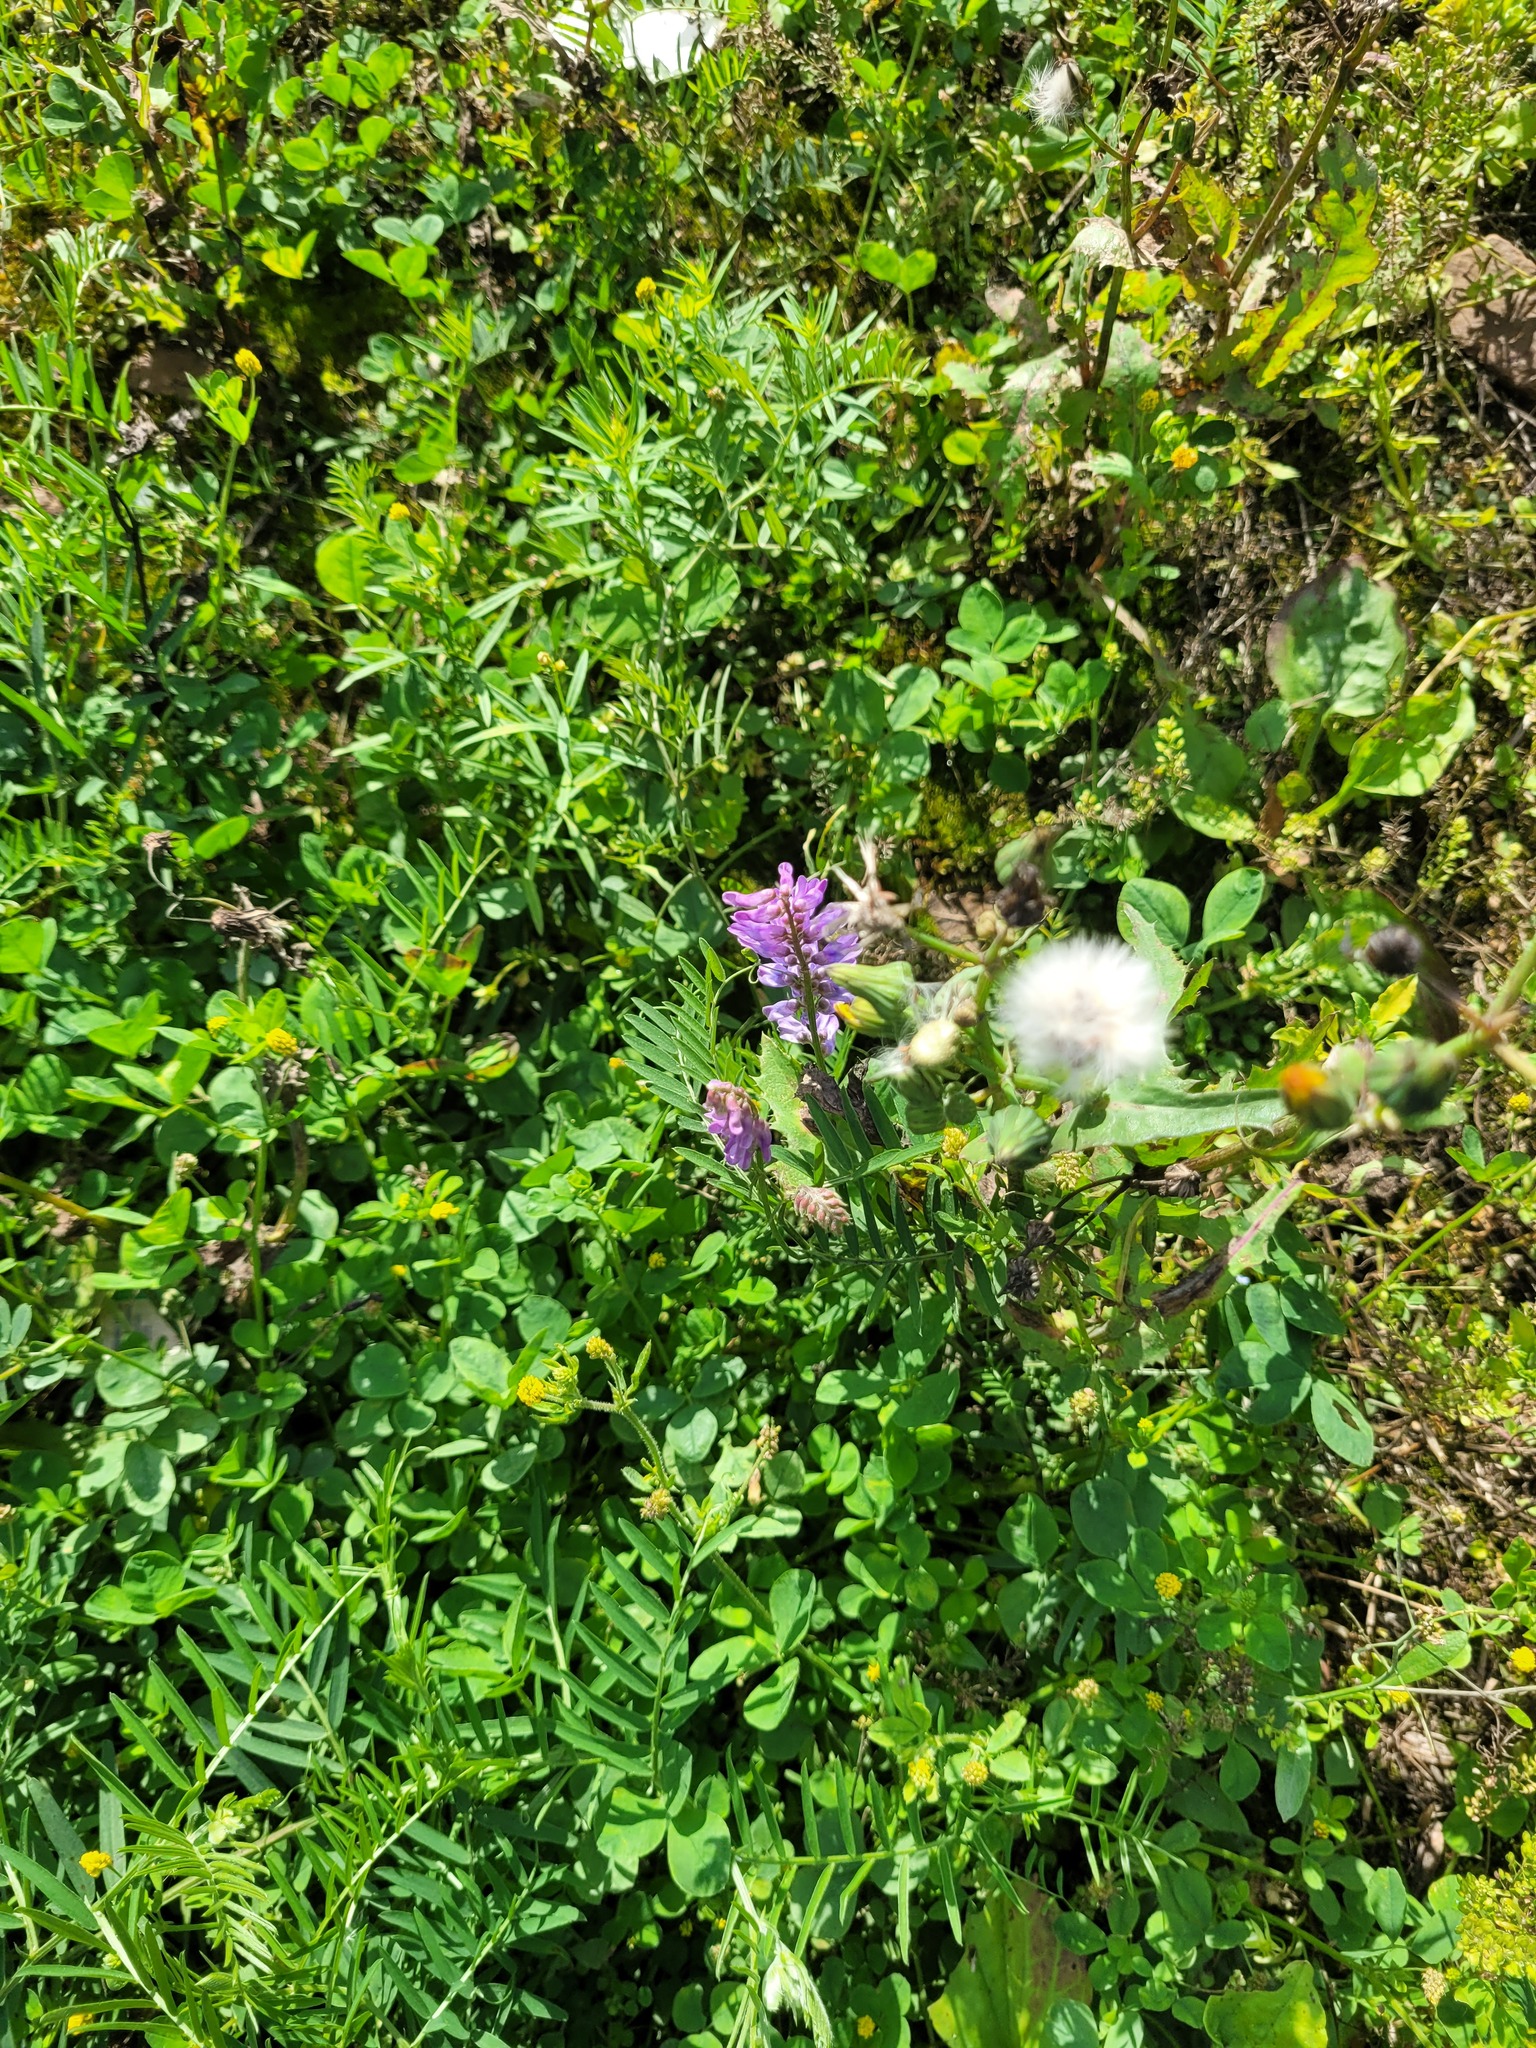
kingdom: Plantae
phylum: Tracheophyta
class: Magnoliopsida
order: Fabales
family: Fabaceae
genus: Vicia
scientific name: Vicia cracca
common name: Bird vetch
